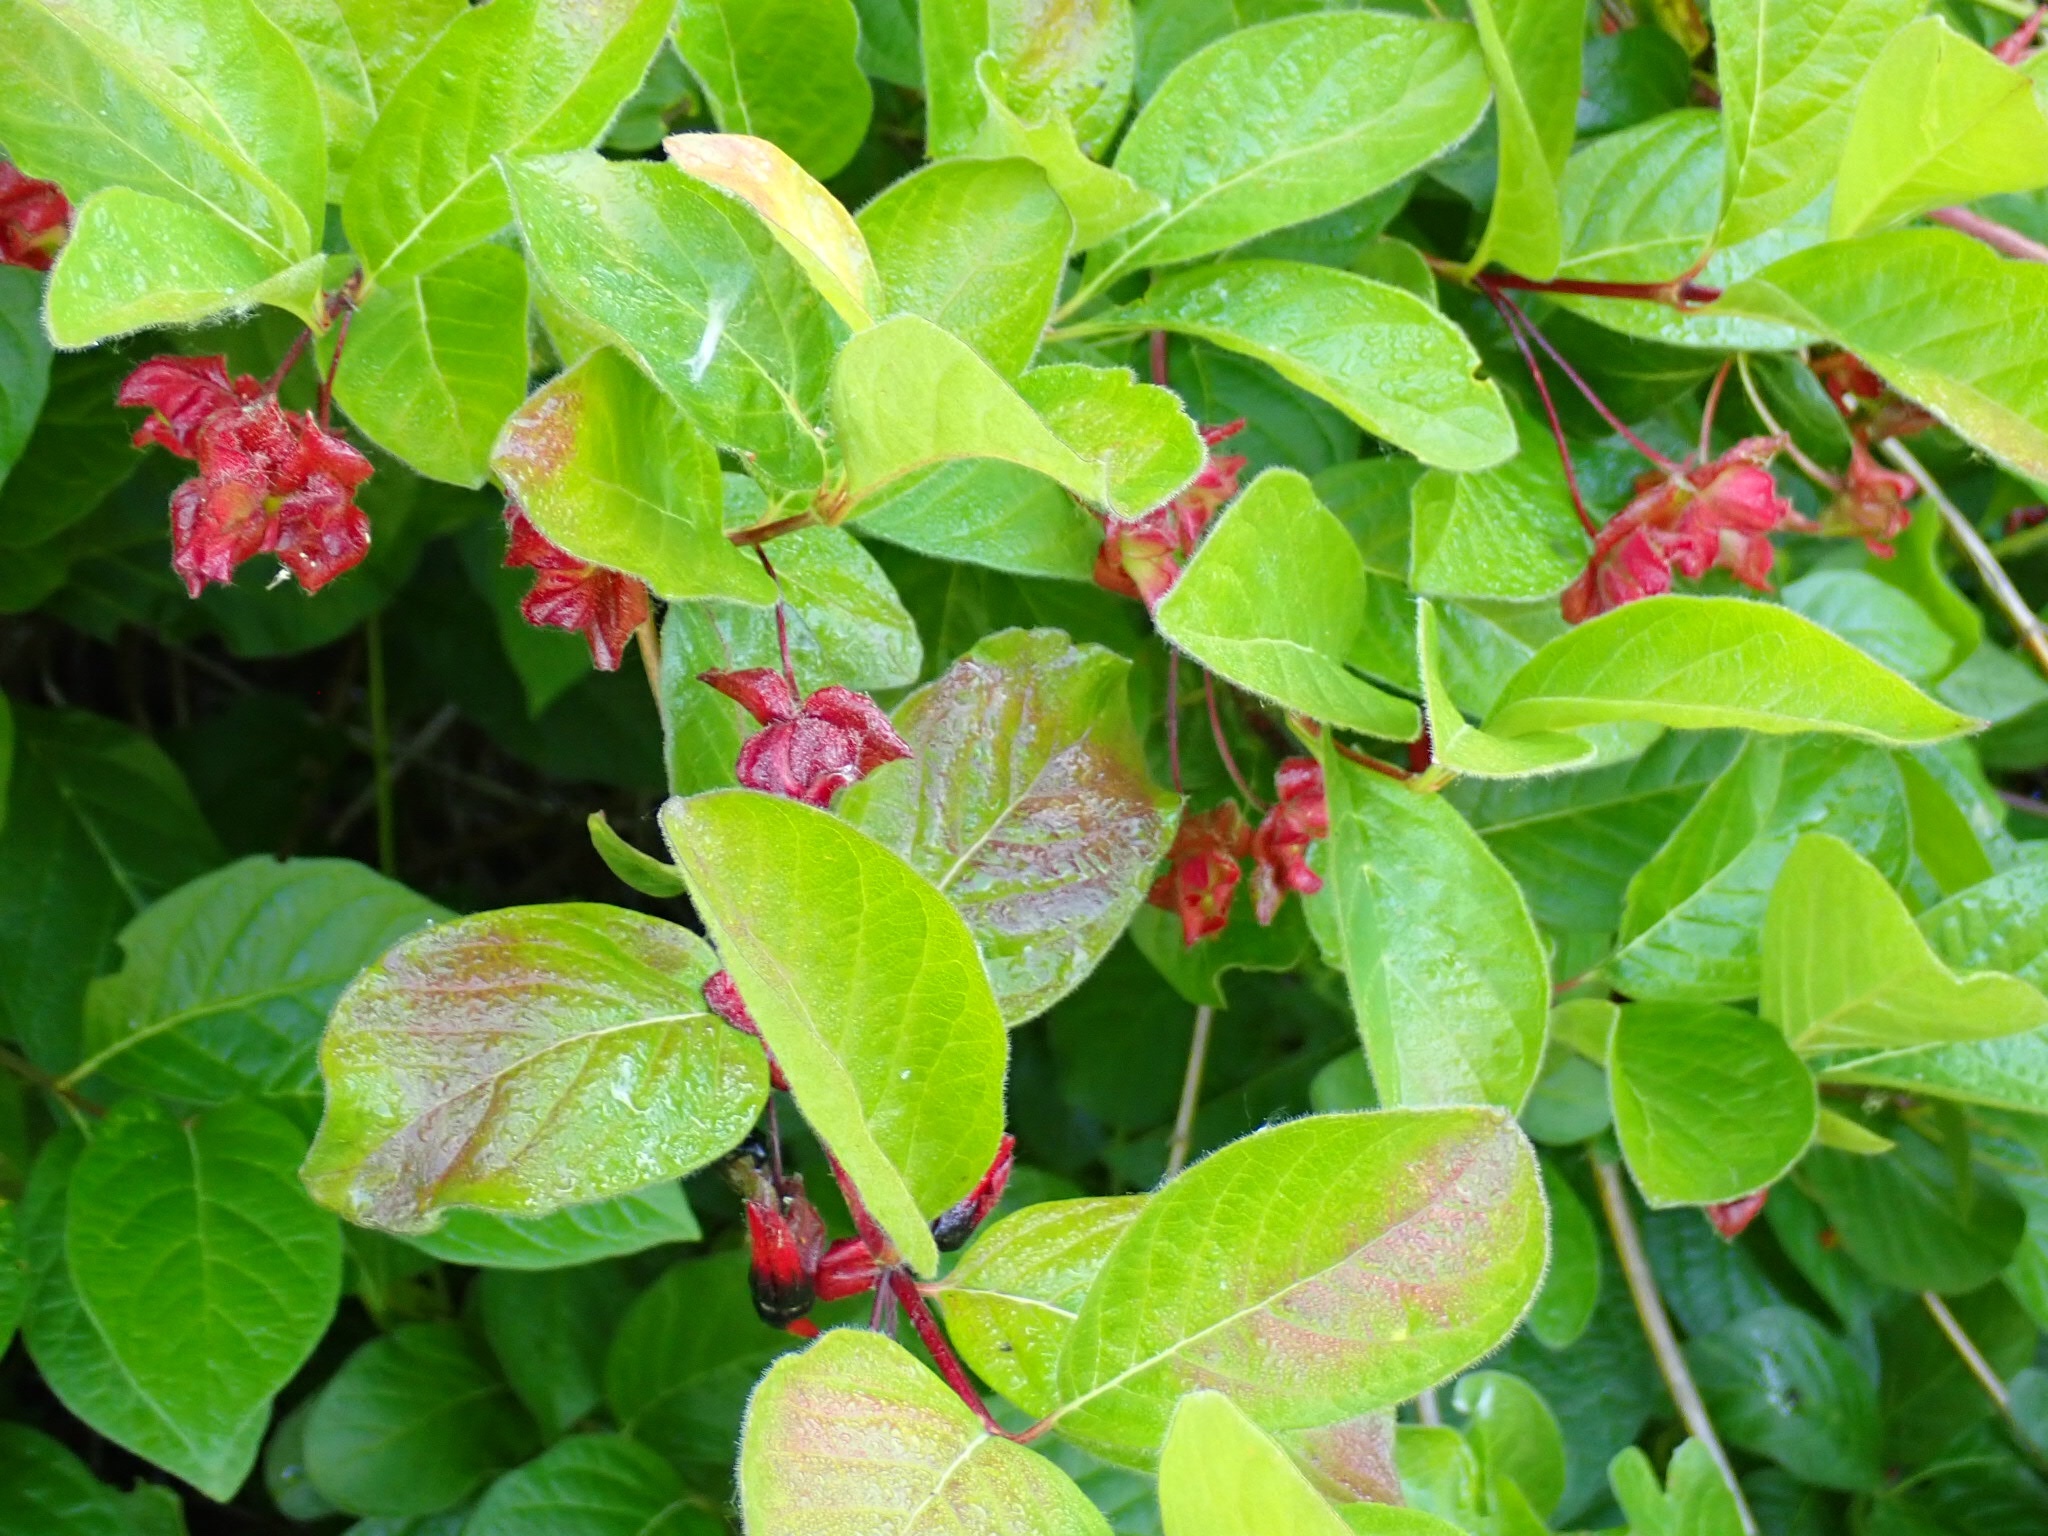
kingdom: Plantae
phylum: Tracheophyta
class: Magnoliopsida
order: Dipsacales
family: Caprifoliaceae
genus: Lonicera
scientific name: Lonicera involucrata
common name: Californian honeysuckle
